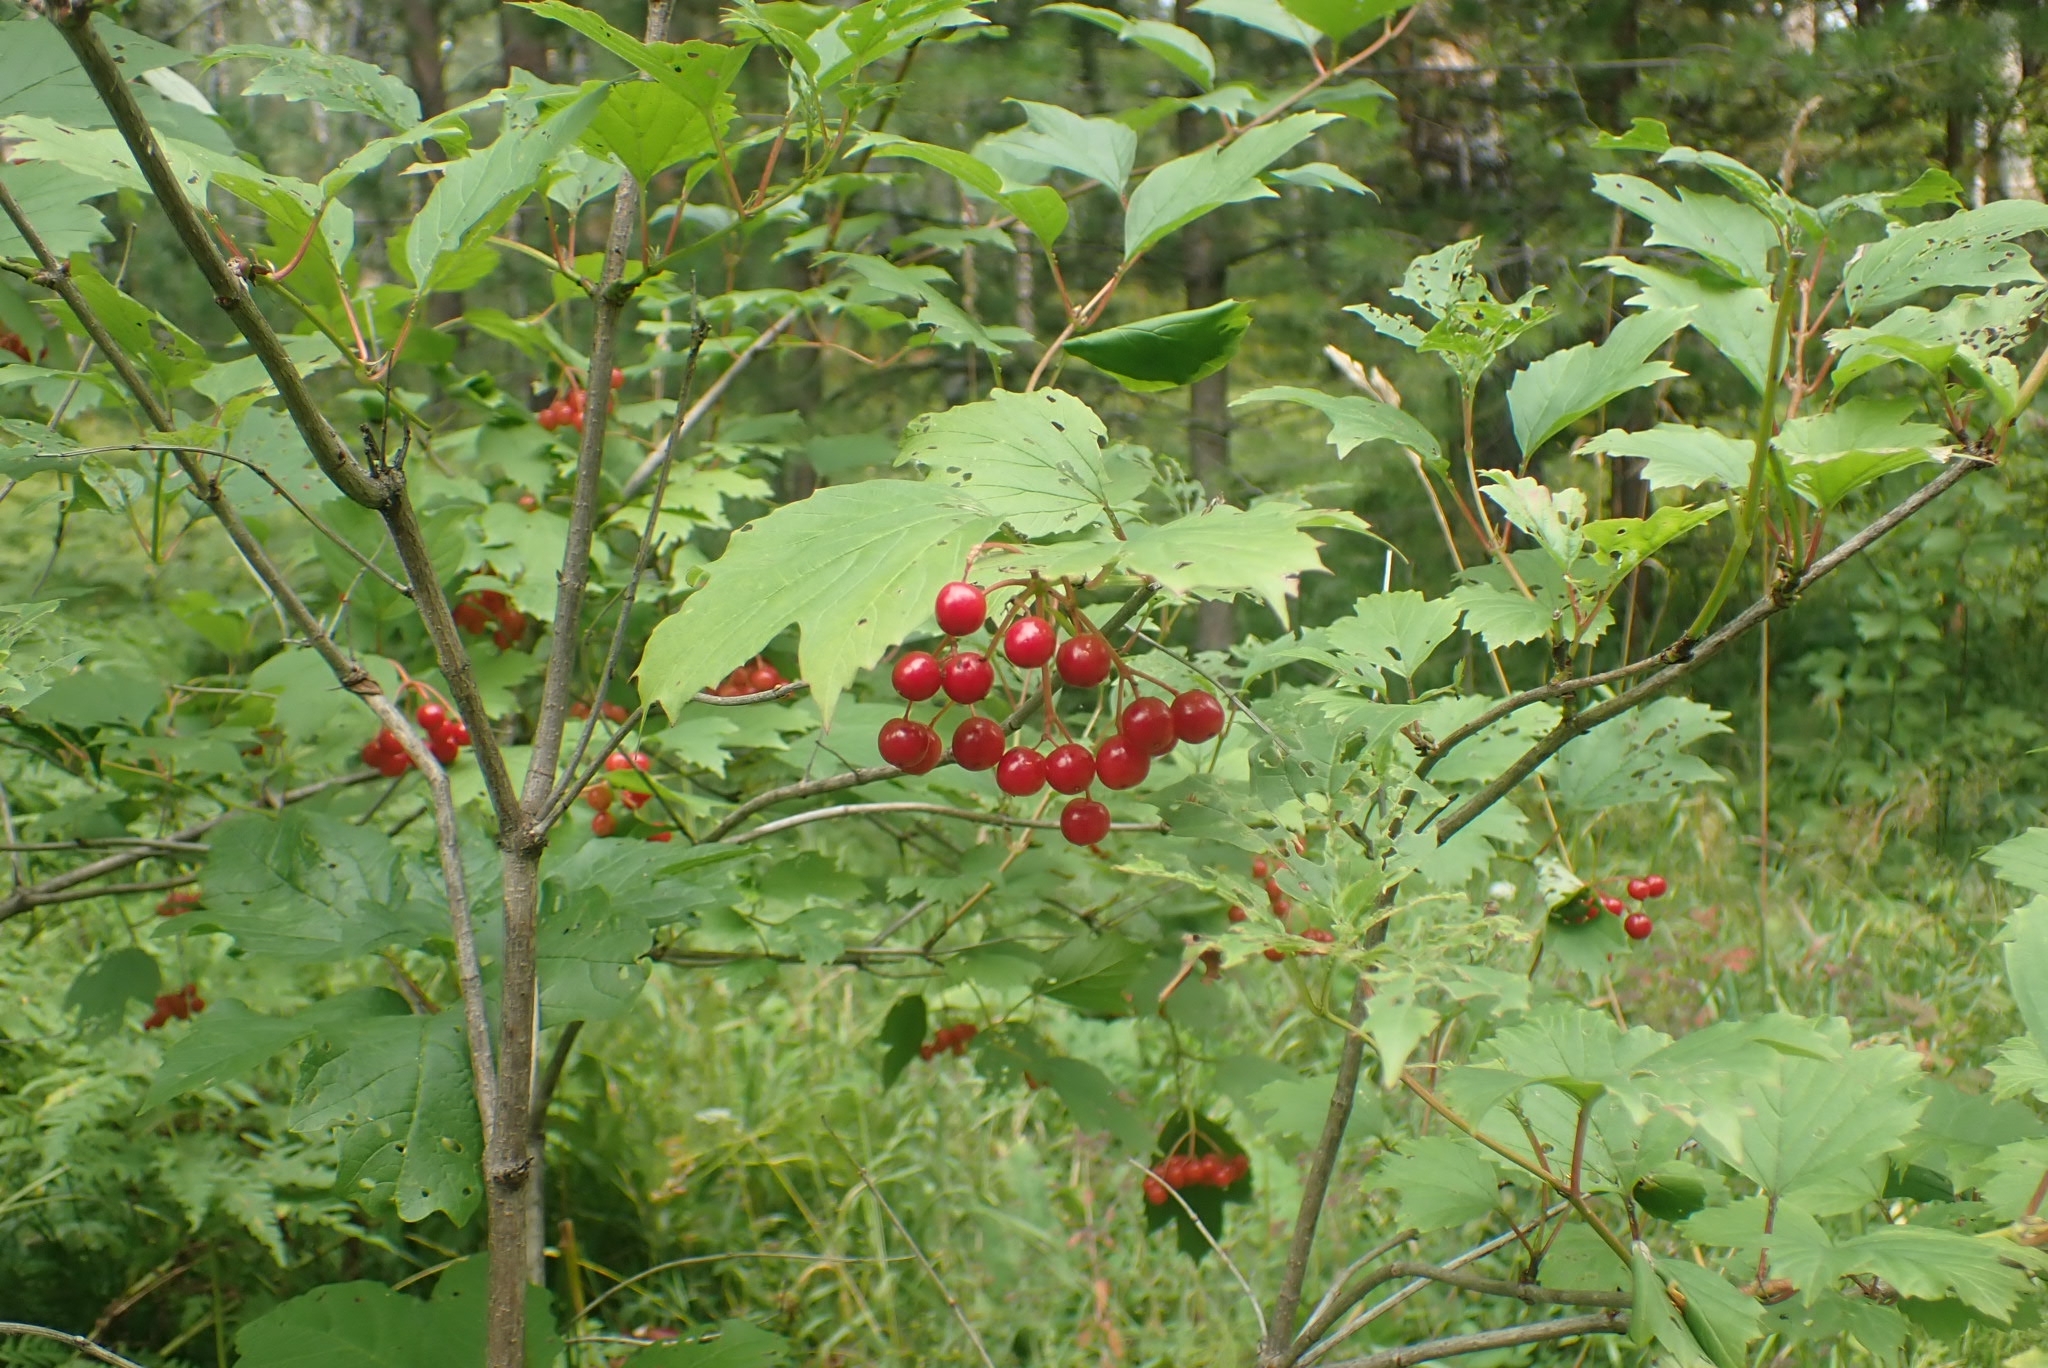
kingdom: Plantae
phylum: Tracheophyta
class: Magnoliopsida
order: Dipsacales
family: Viburnaceae
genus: Viburnum
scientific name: Viburnum opulus
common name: Guelder-rose
